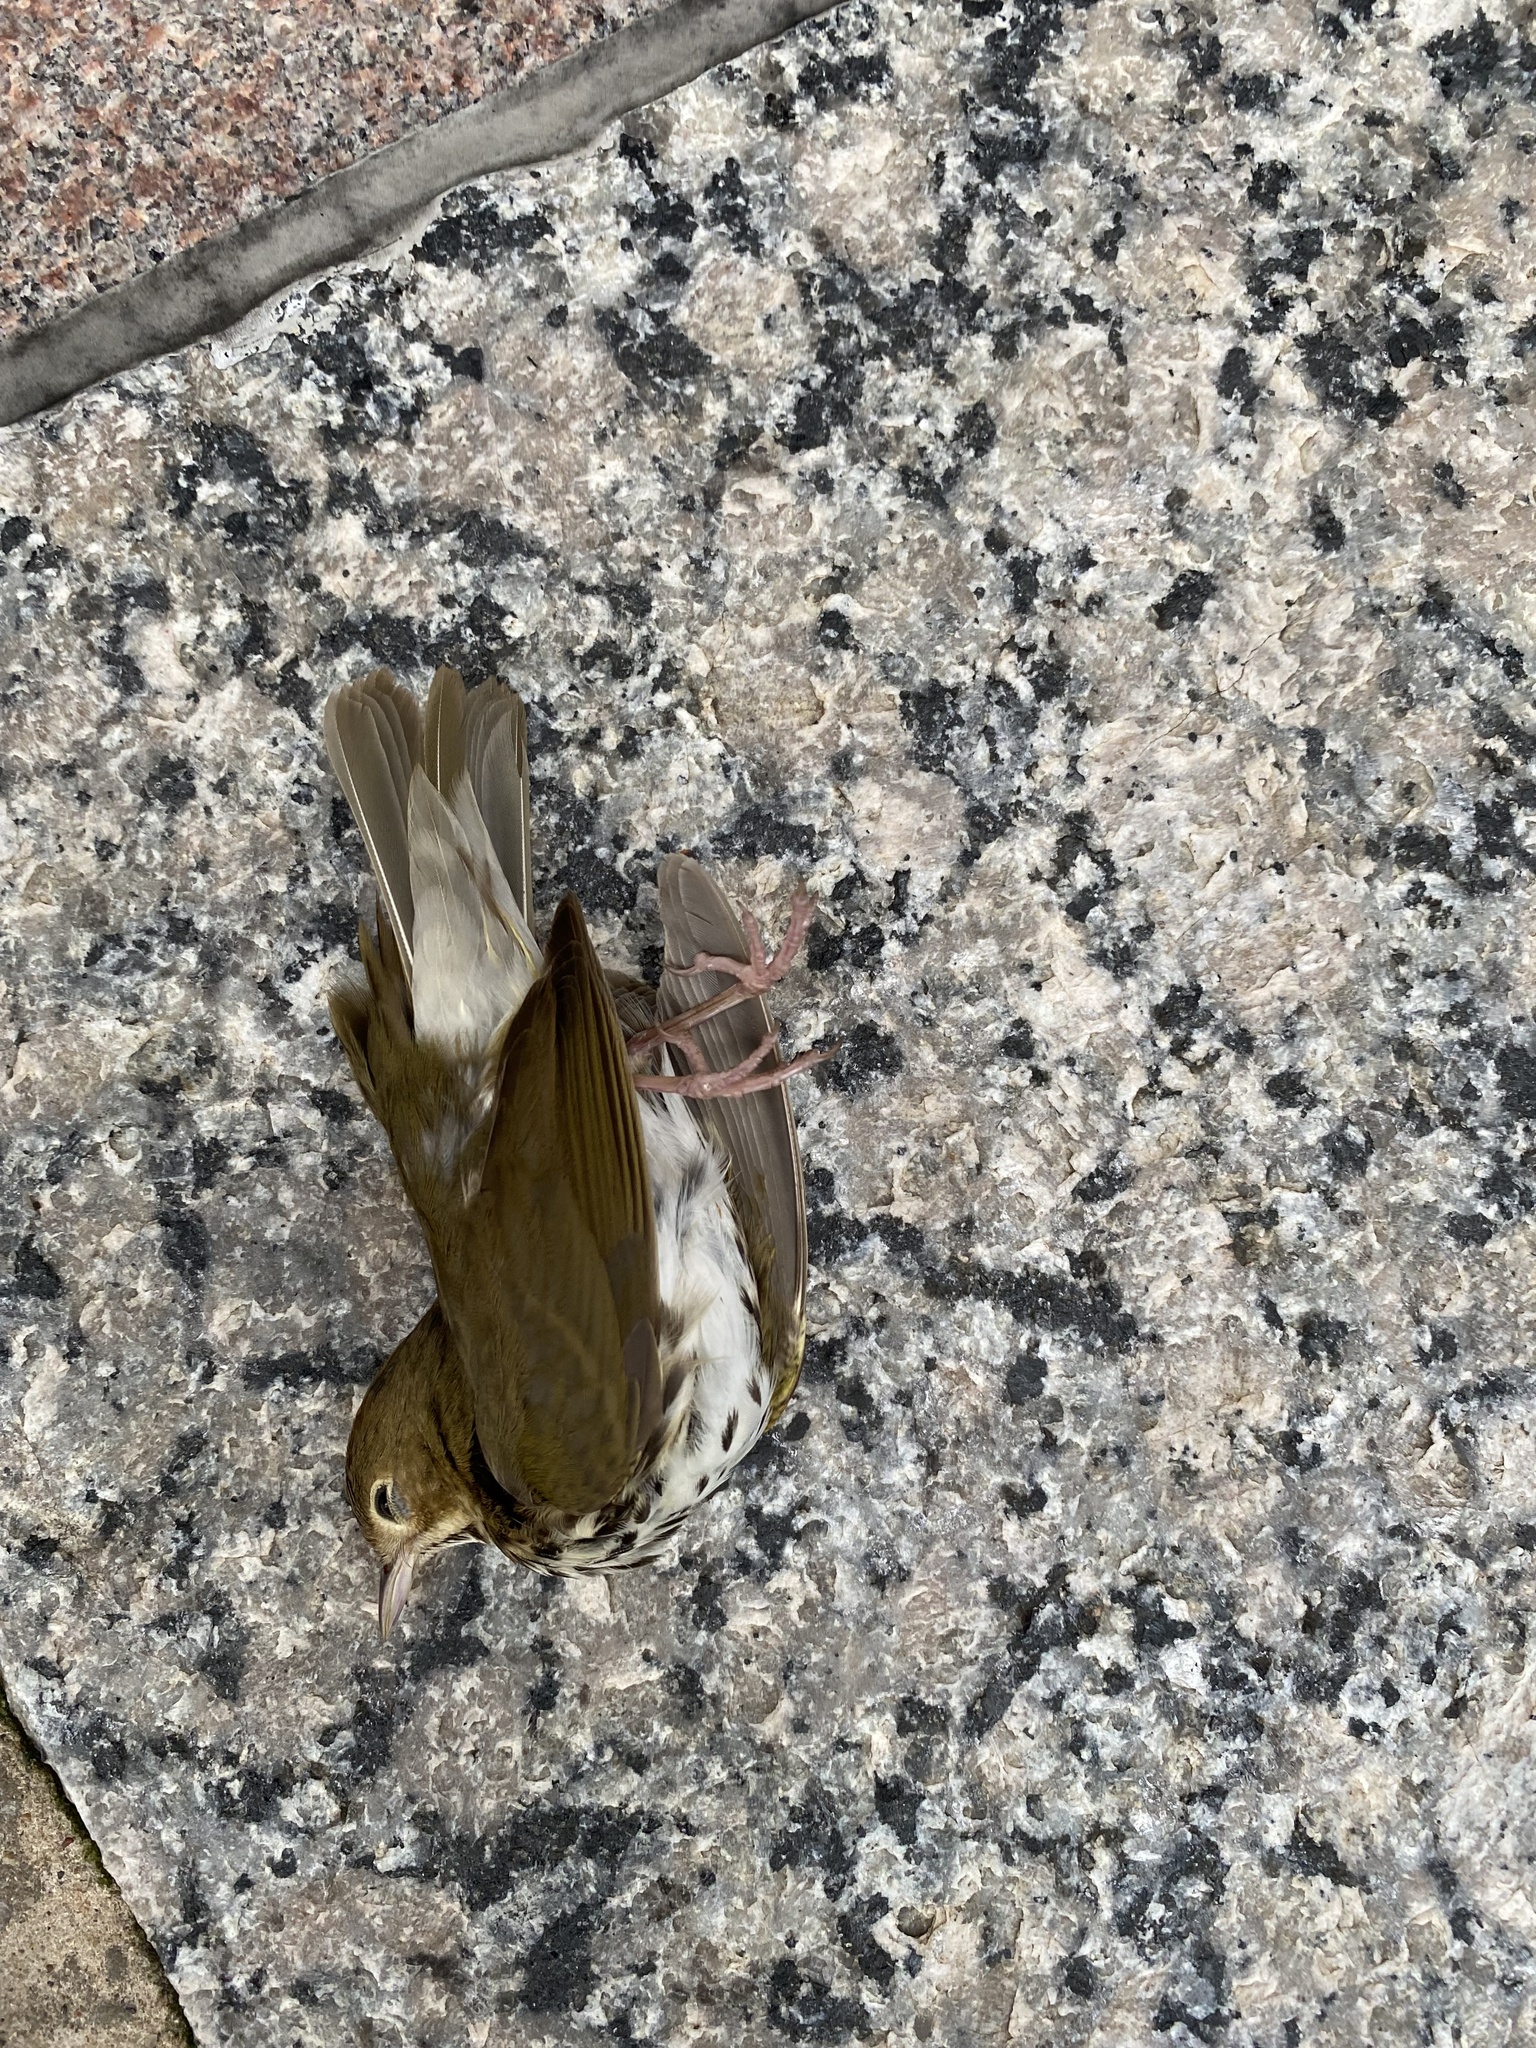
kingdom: Animalia
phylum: Chordata
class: Aves
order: Passeriformes
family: Parulidae
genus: Seiurus
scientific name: Seiurus aurocapilla
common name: Ovenbird
